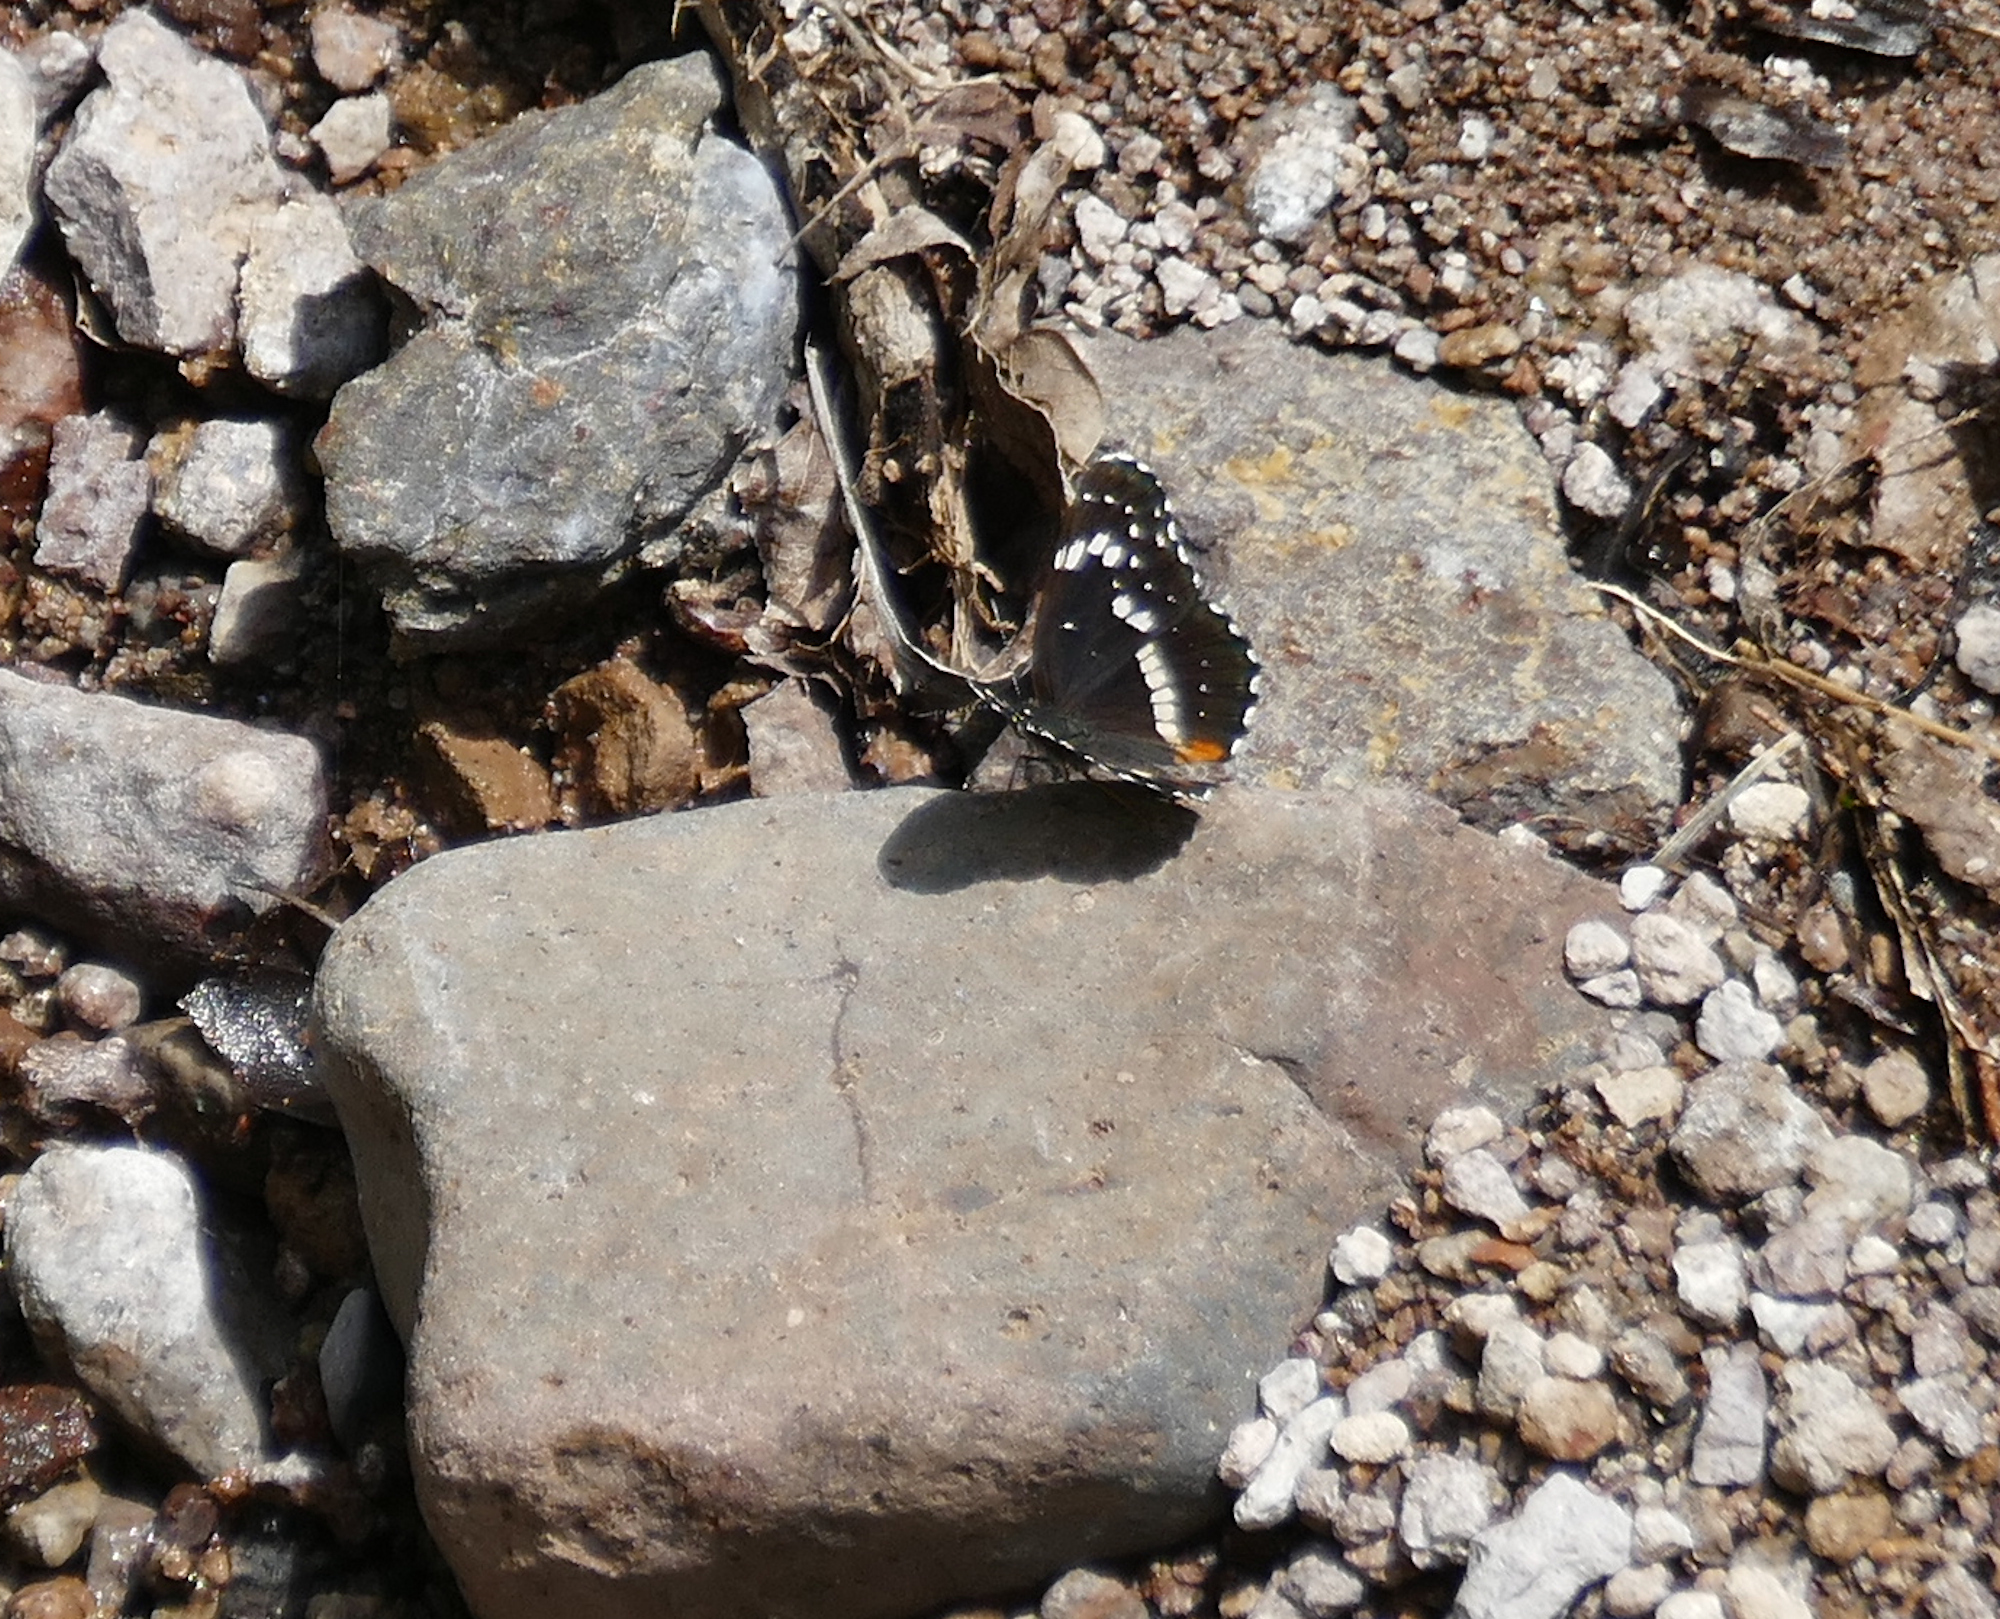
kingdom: Animalia
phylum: Arthropoda
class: Insecta
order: Lepidoptera
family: Nymphalidae
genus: Chlosyne
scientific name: Chlosyne lacinia
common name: Bordered patch
